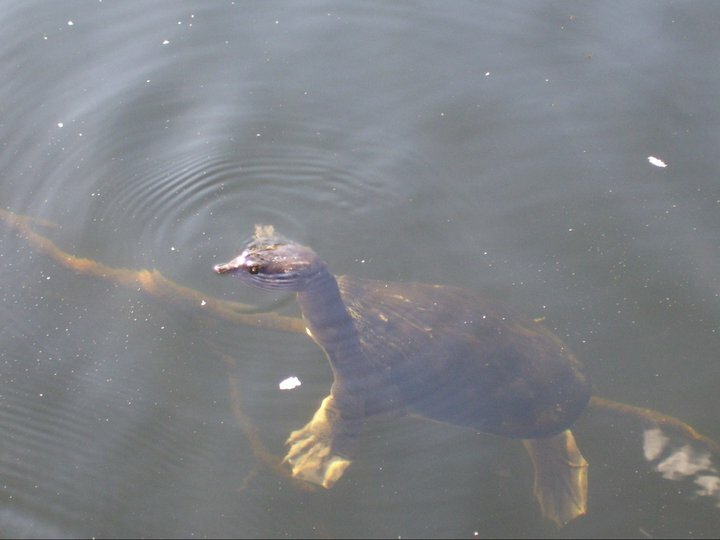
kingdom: Animalia
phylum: Chordata
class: Testudines
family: Trionychidae
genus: Apalone
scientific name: Apalone ferox
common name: Florida softshell turtle
